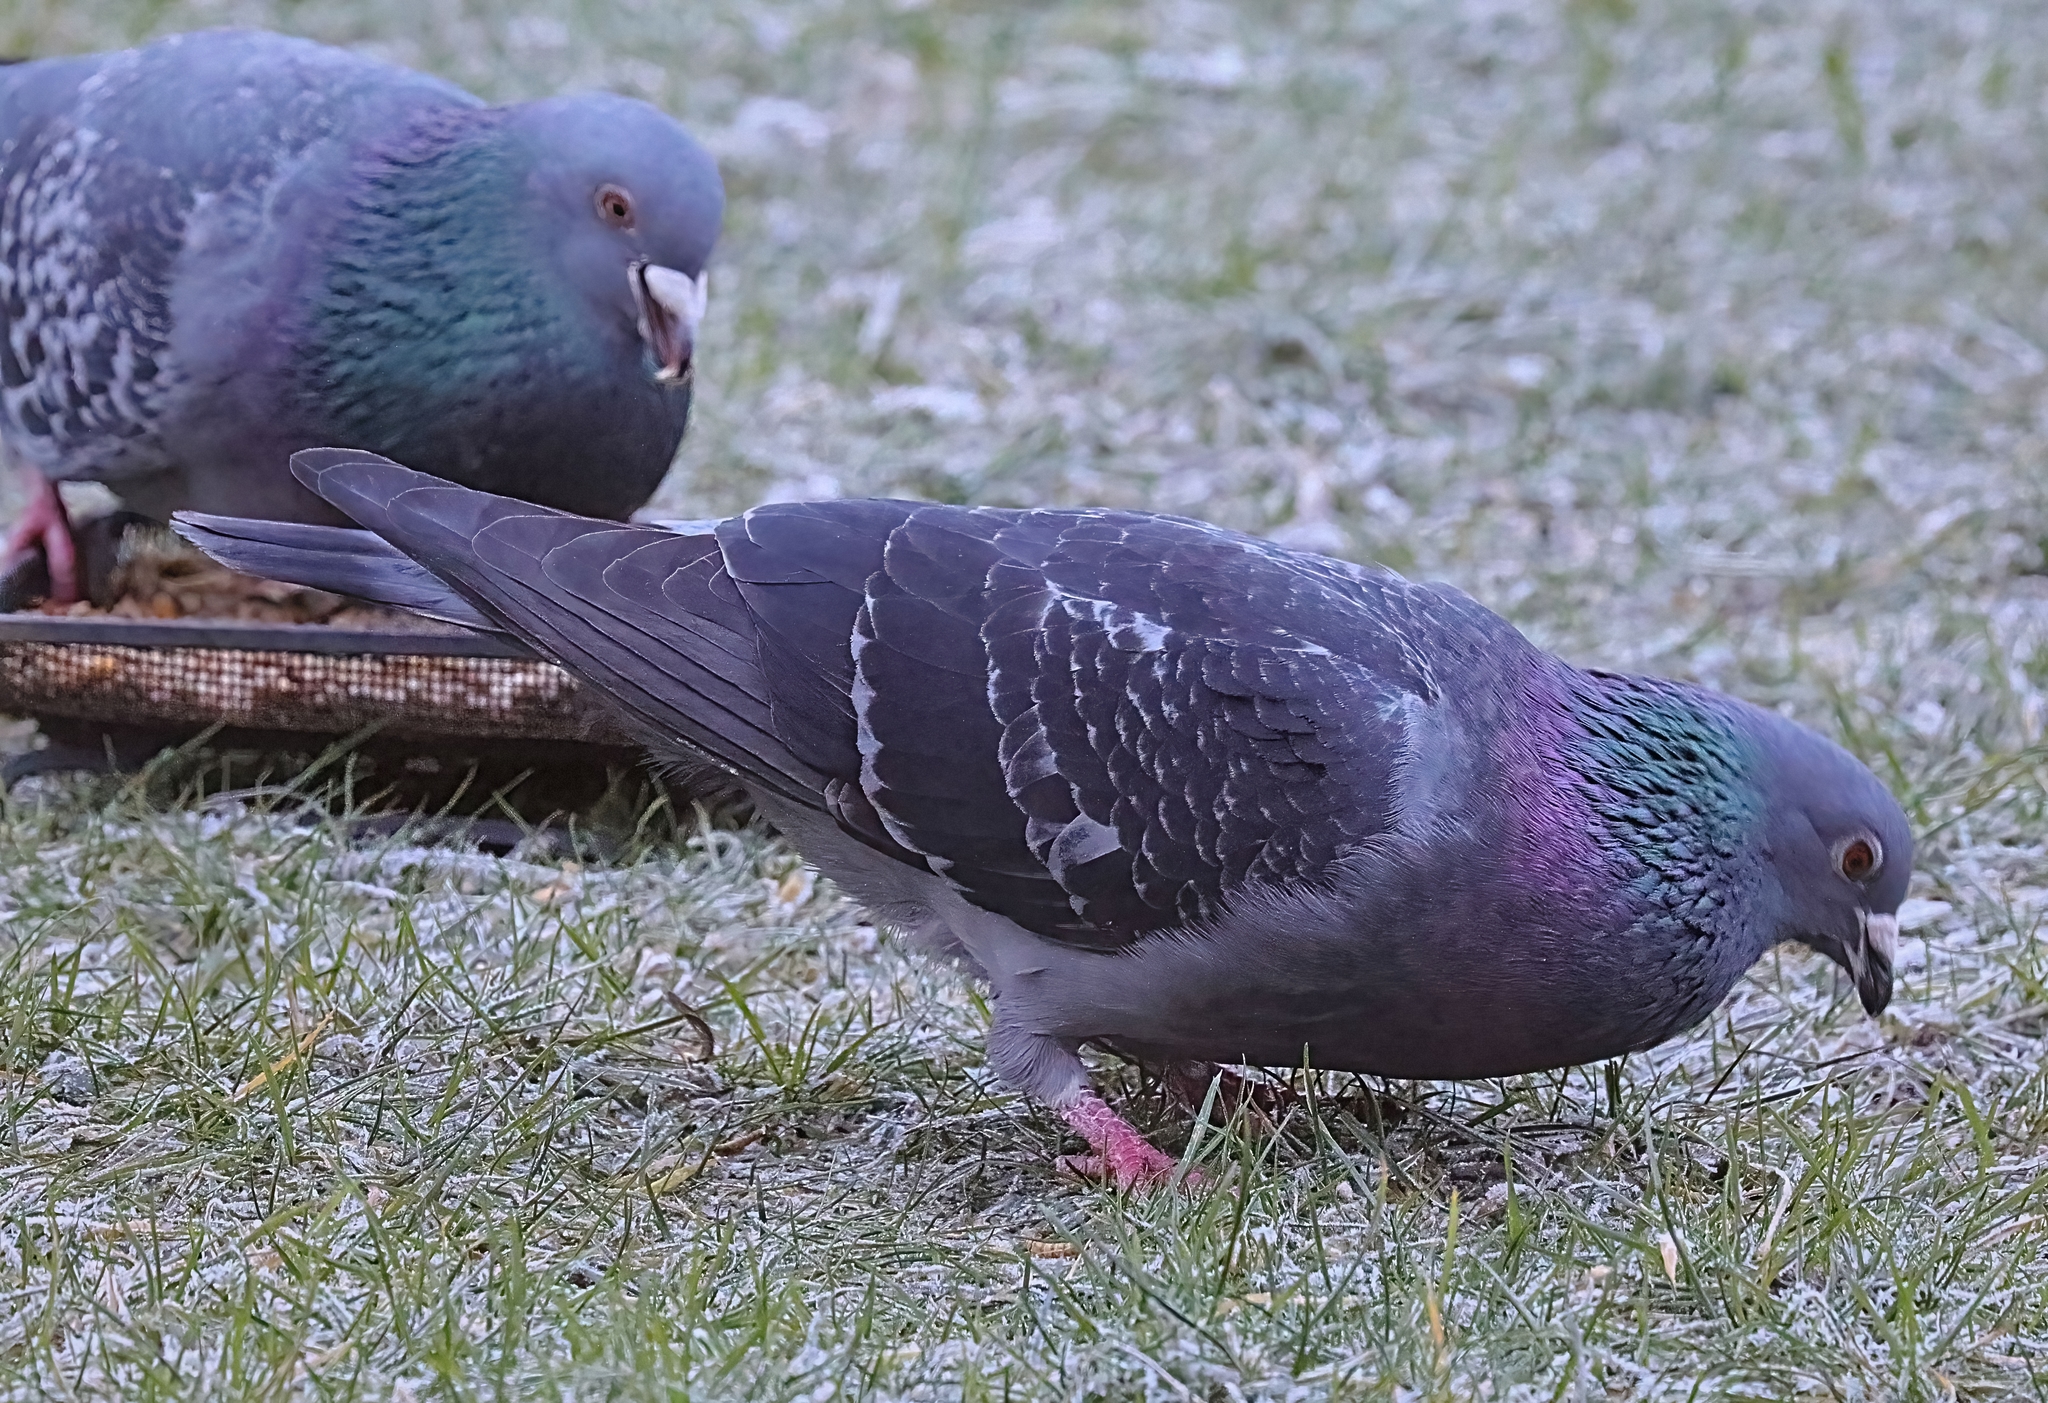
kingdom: Animalia
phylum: Chordata
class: Aves
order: Columbiformes
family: Columbidae
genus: Columba
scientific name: Columba livia
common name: Rock pigeon
